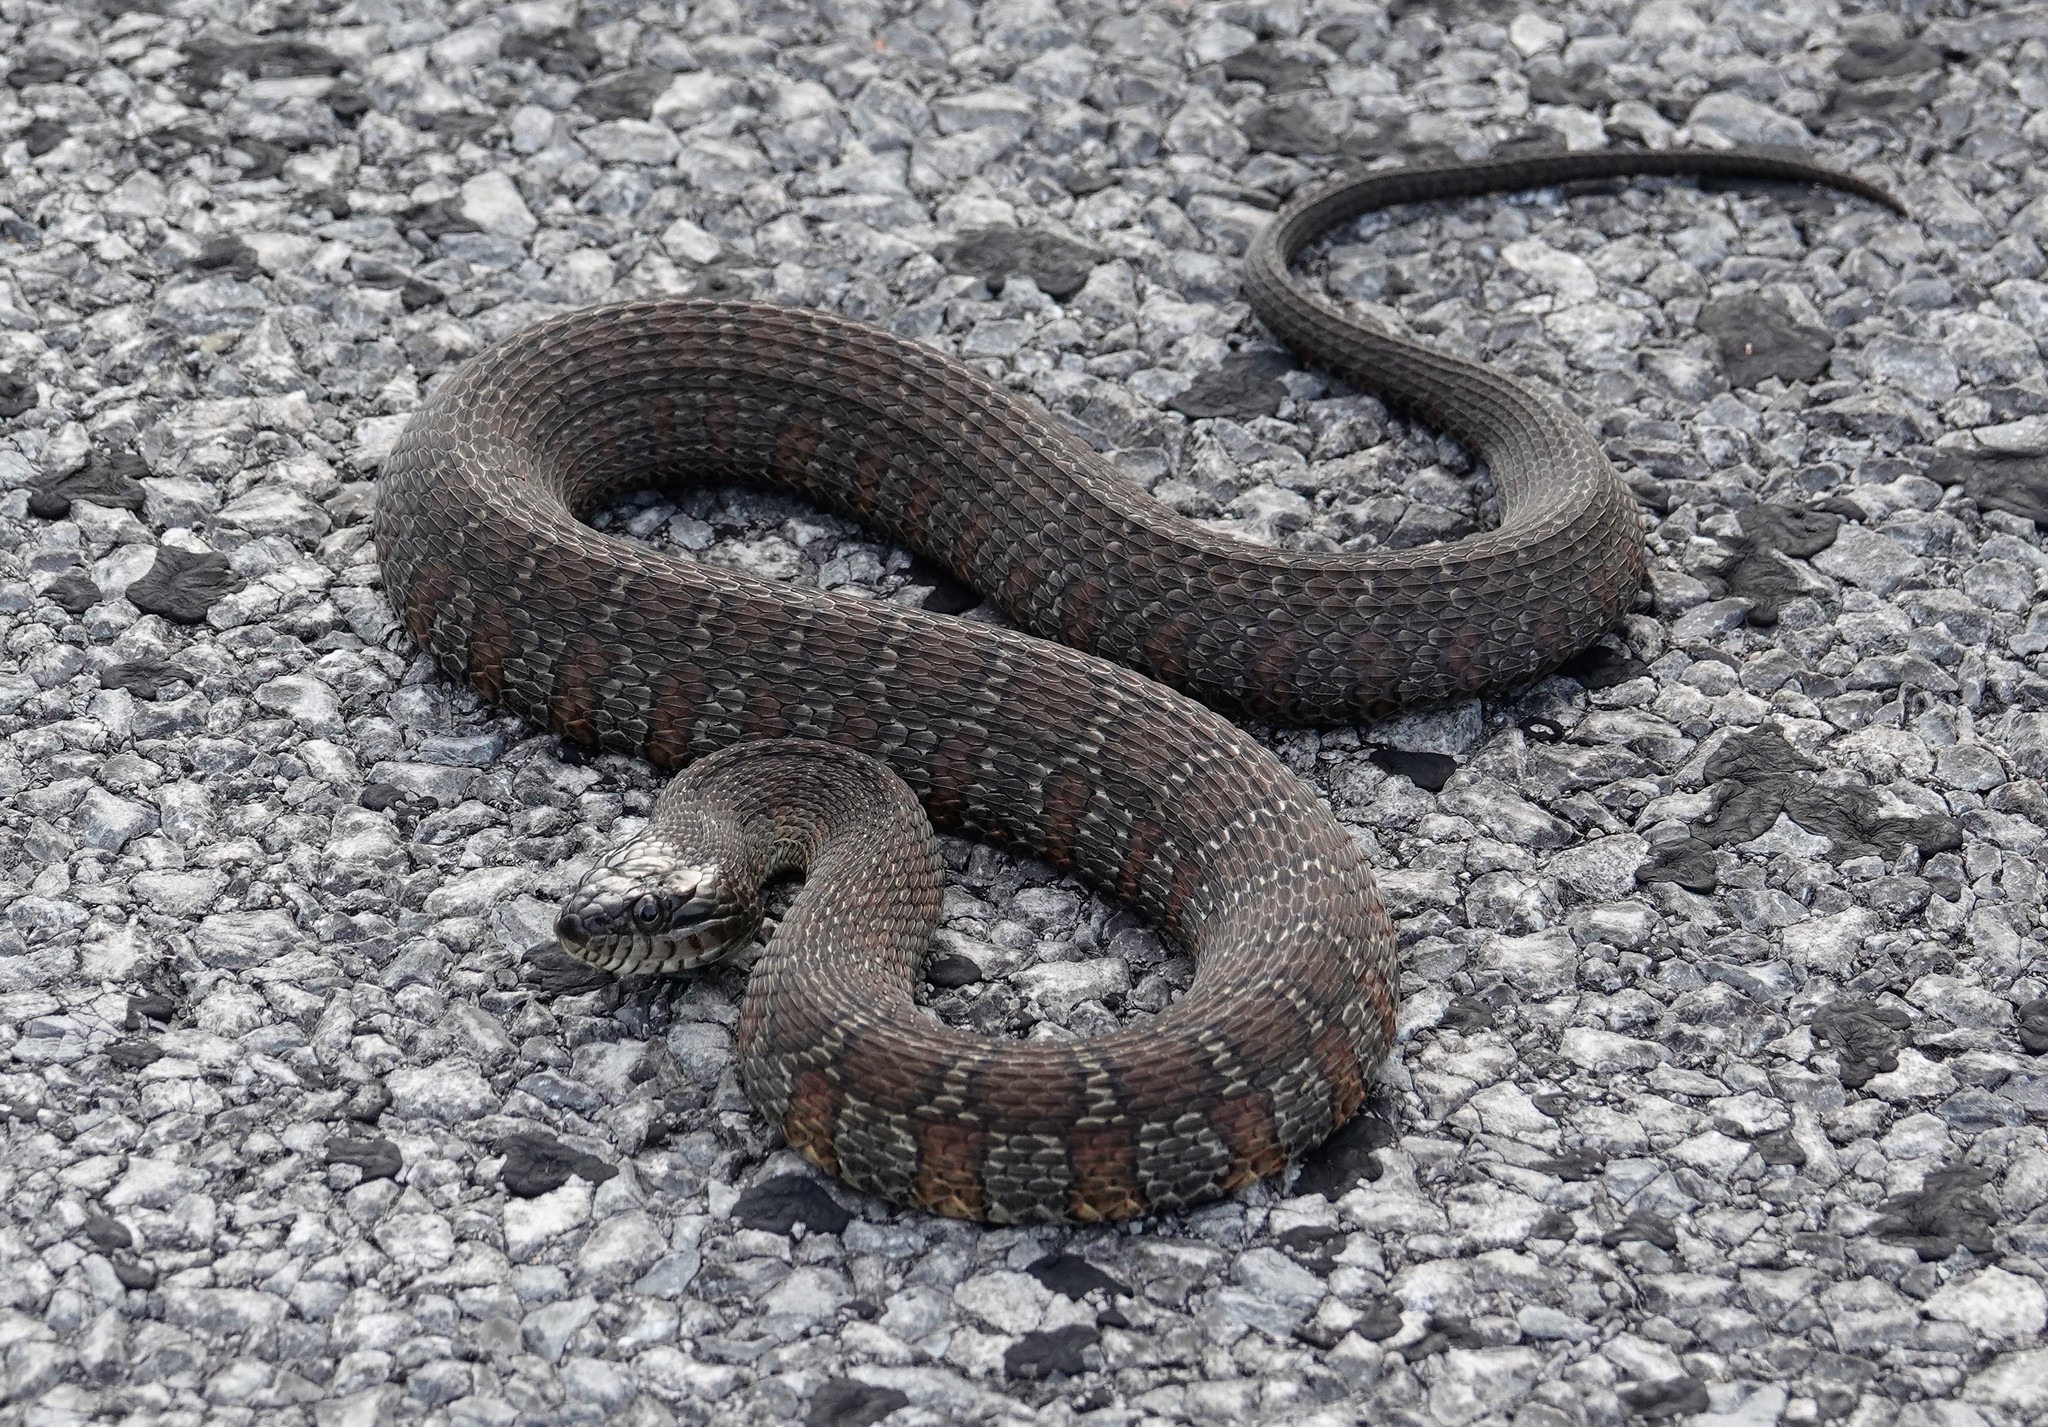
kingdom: Animalia
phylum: Chordata
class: Squamata
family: Colubridae
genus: Nerodia
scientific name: Nerodia sipedon
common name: Northern water snake
